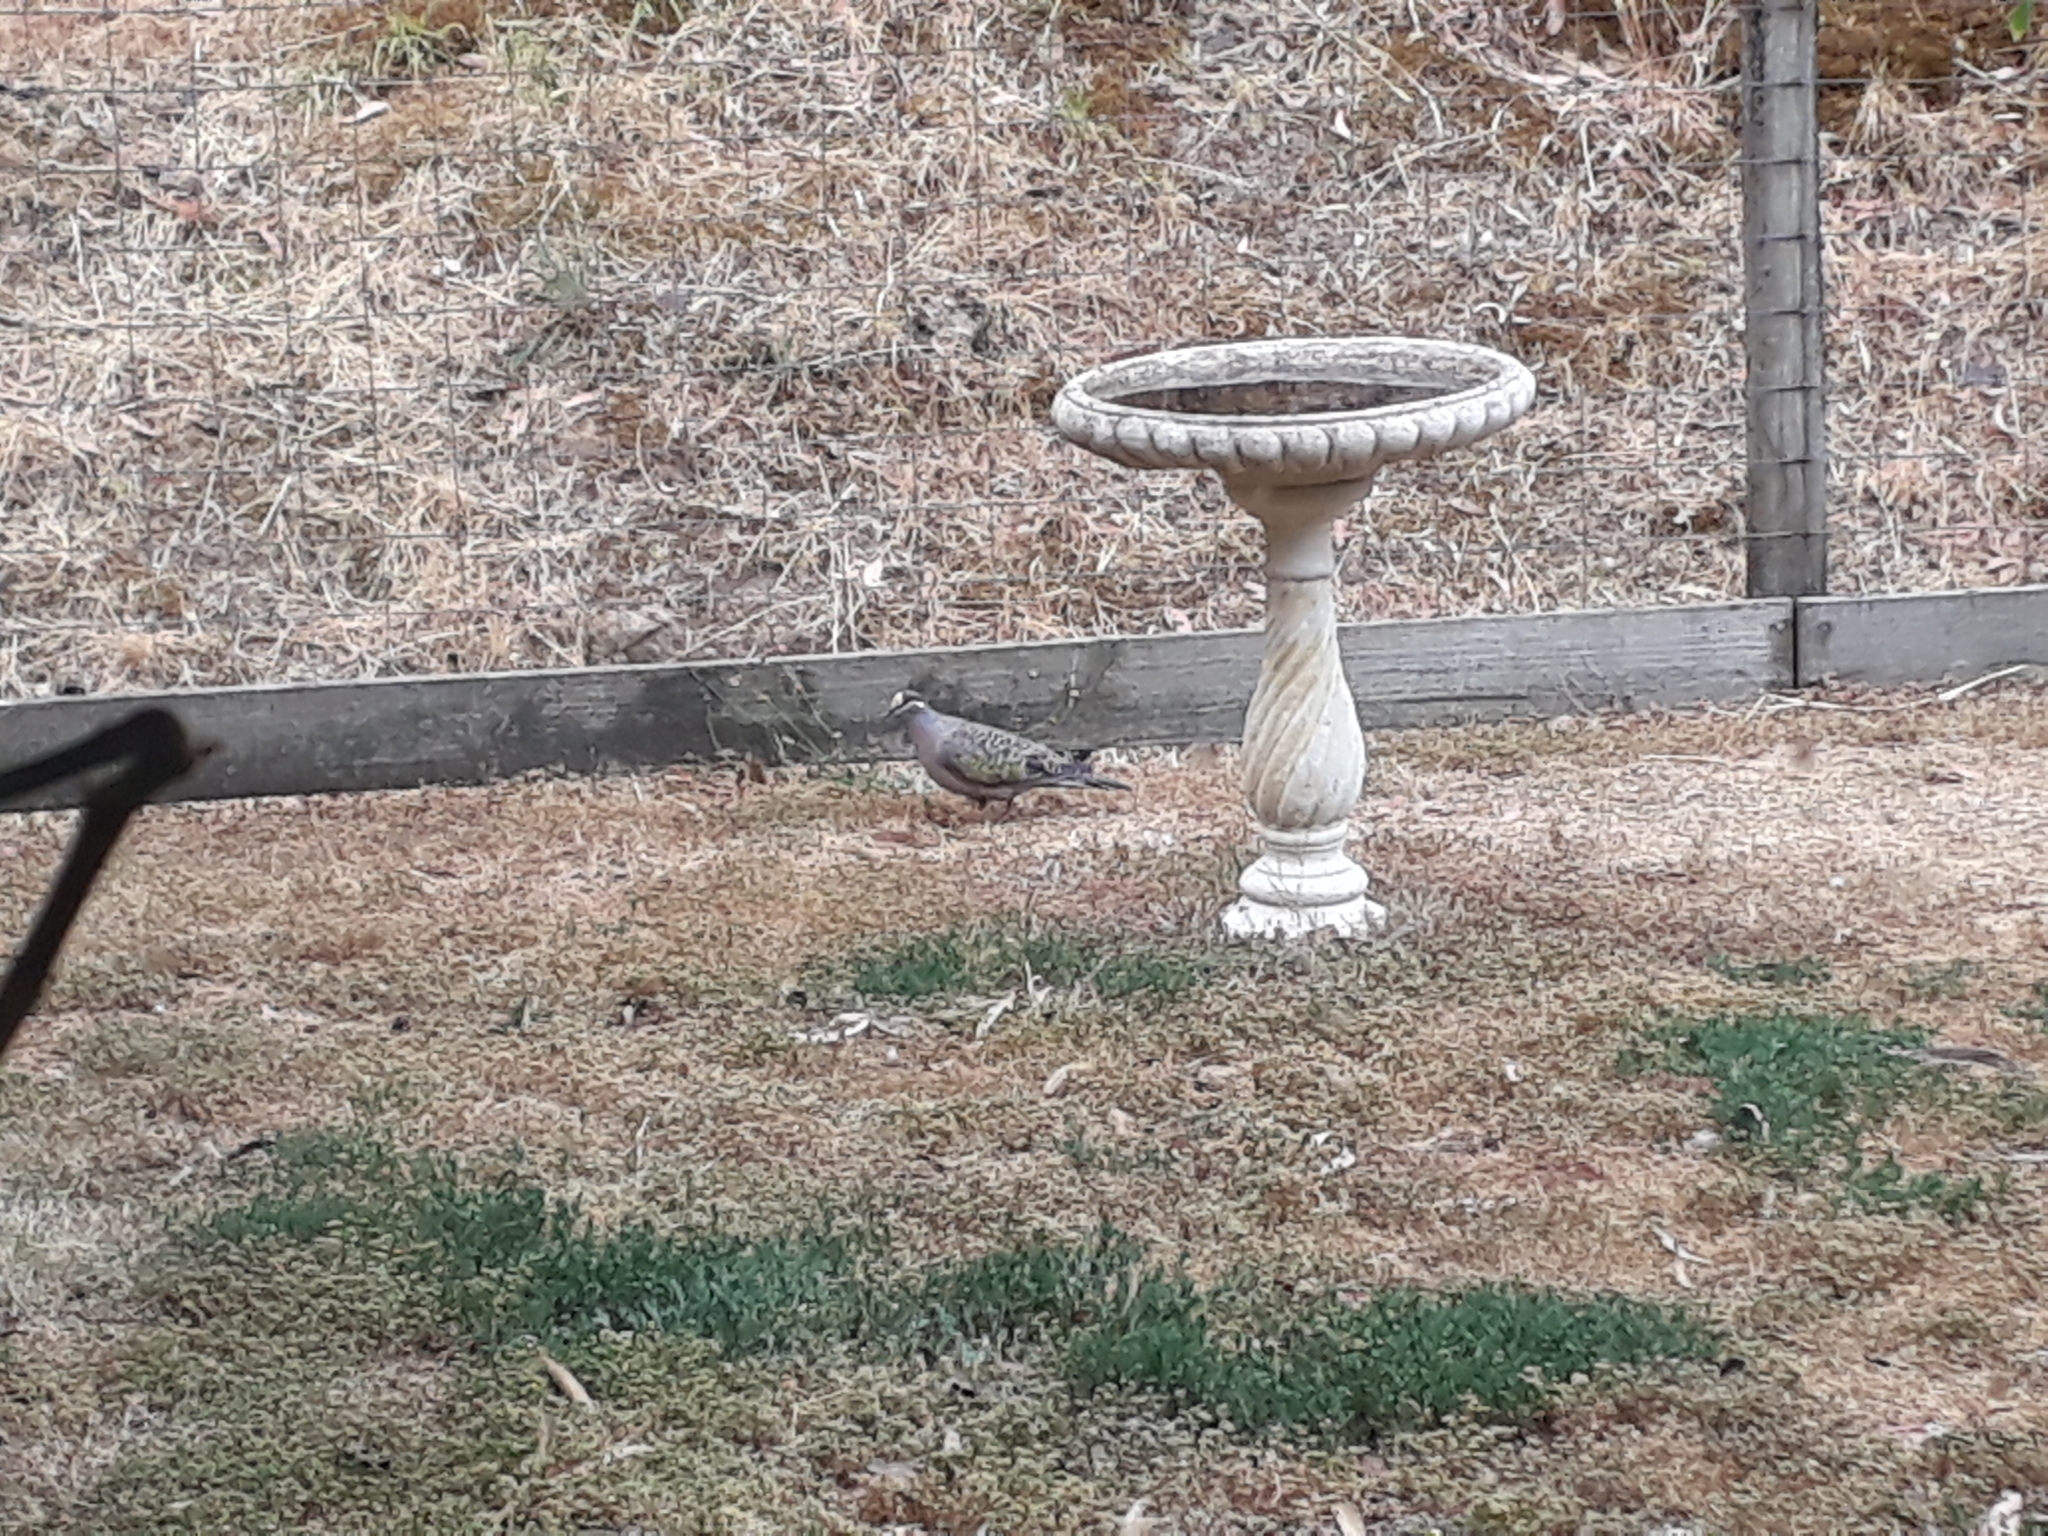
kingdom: Animalia
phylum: Chordata
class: Aves
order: Columbiformes
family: Columbidae
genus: Phaps
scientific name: Phaps chalcoptera
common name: Common bronzewing
